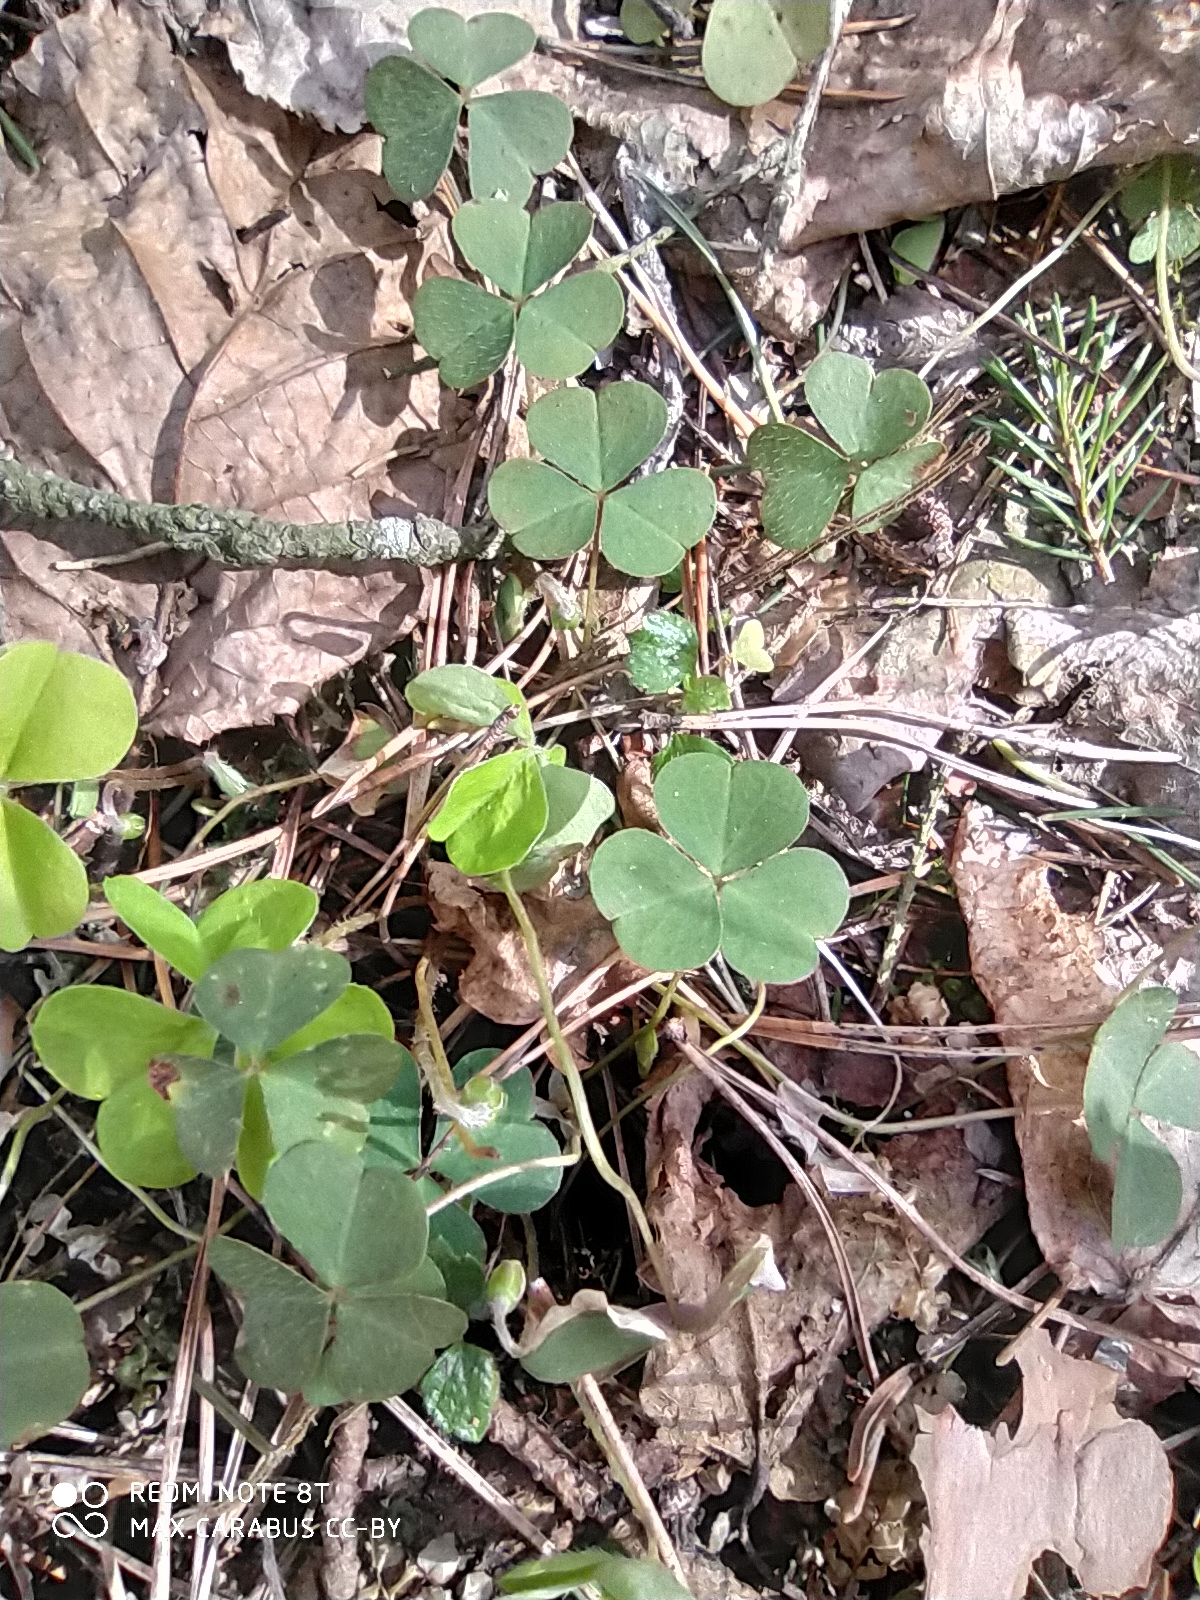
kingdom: Plantae
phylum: Tracheophyta
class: Magnoliopsida
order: Oxalidales
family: Oxalidaceae
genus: Oxalis
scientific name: Oxalis acetosella
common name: Wood-sorrel
